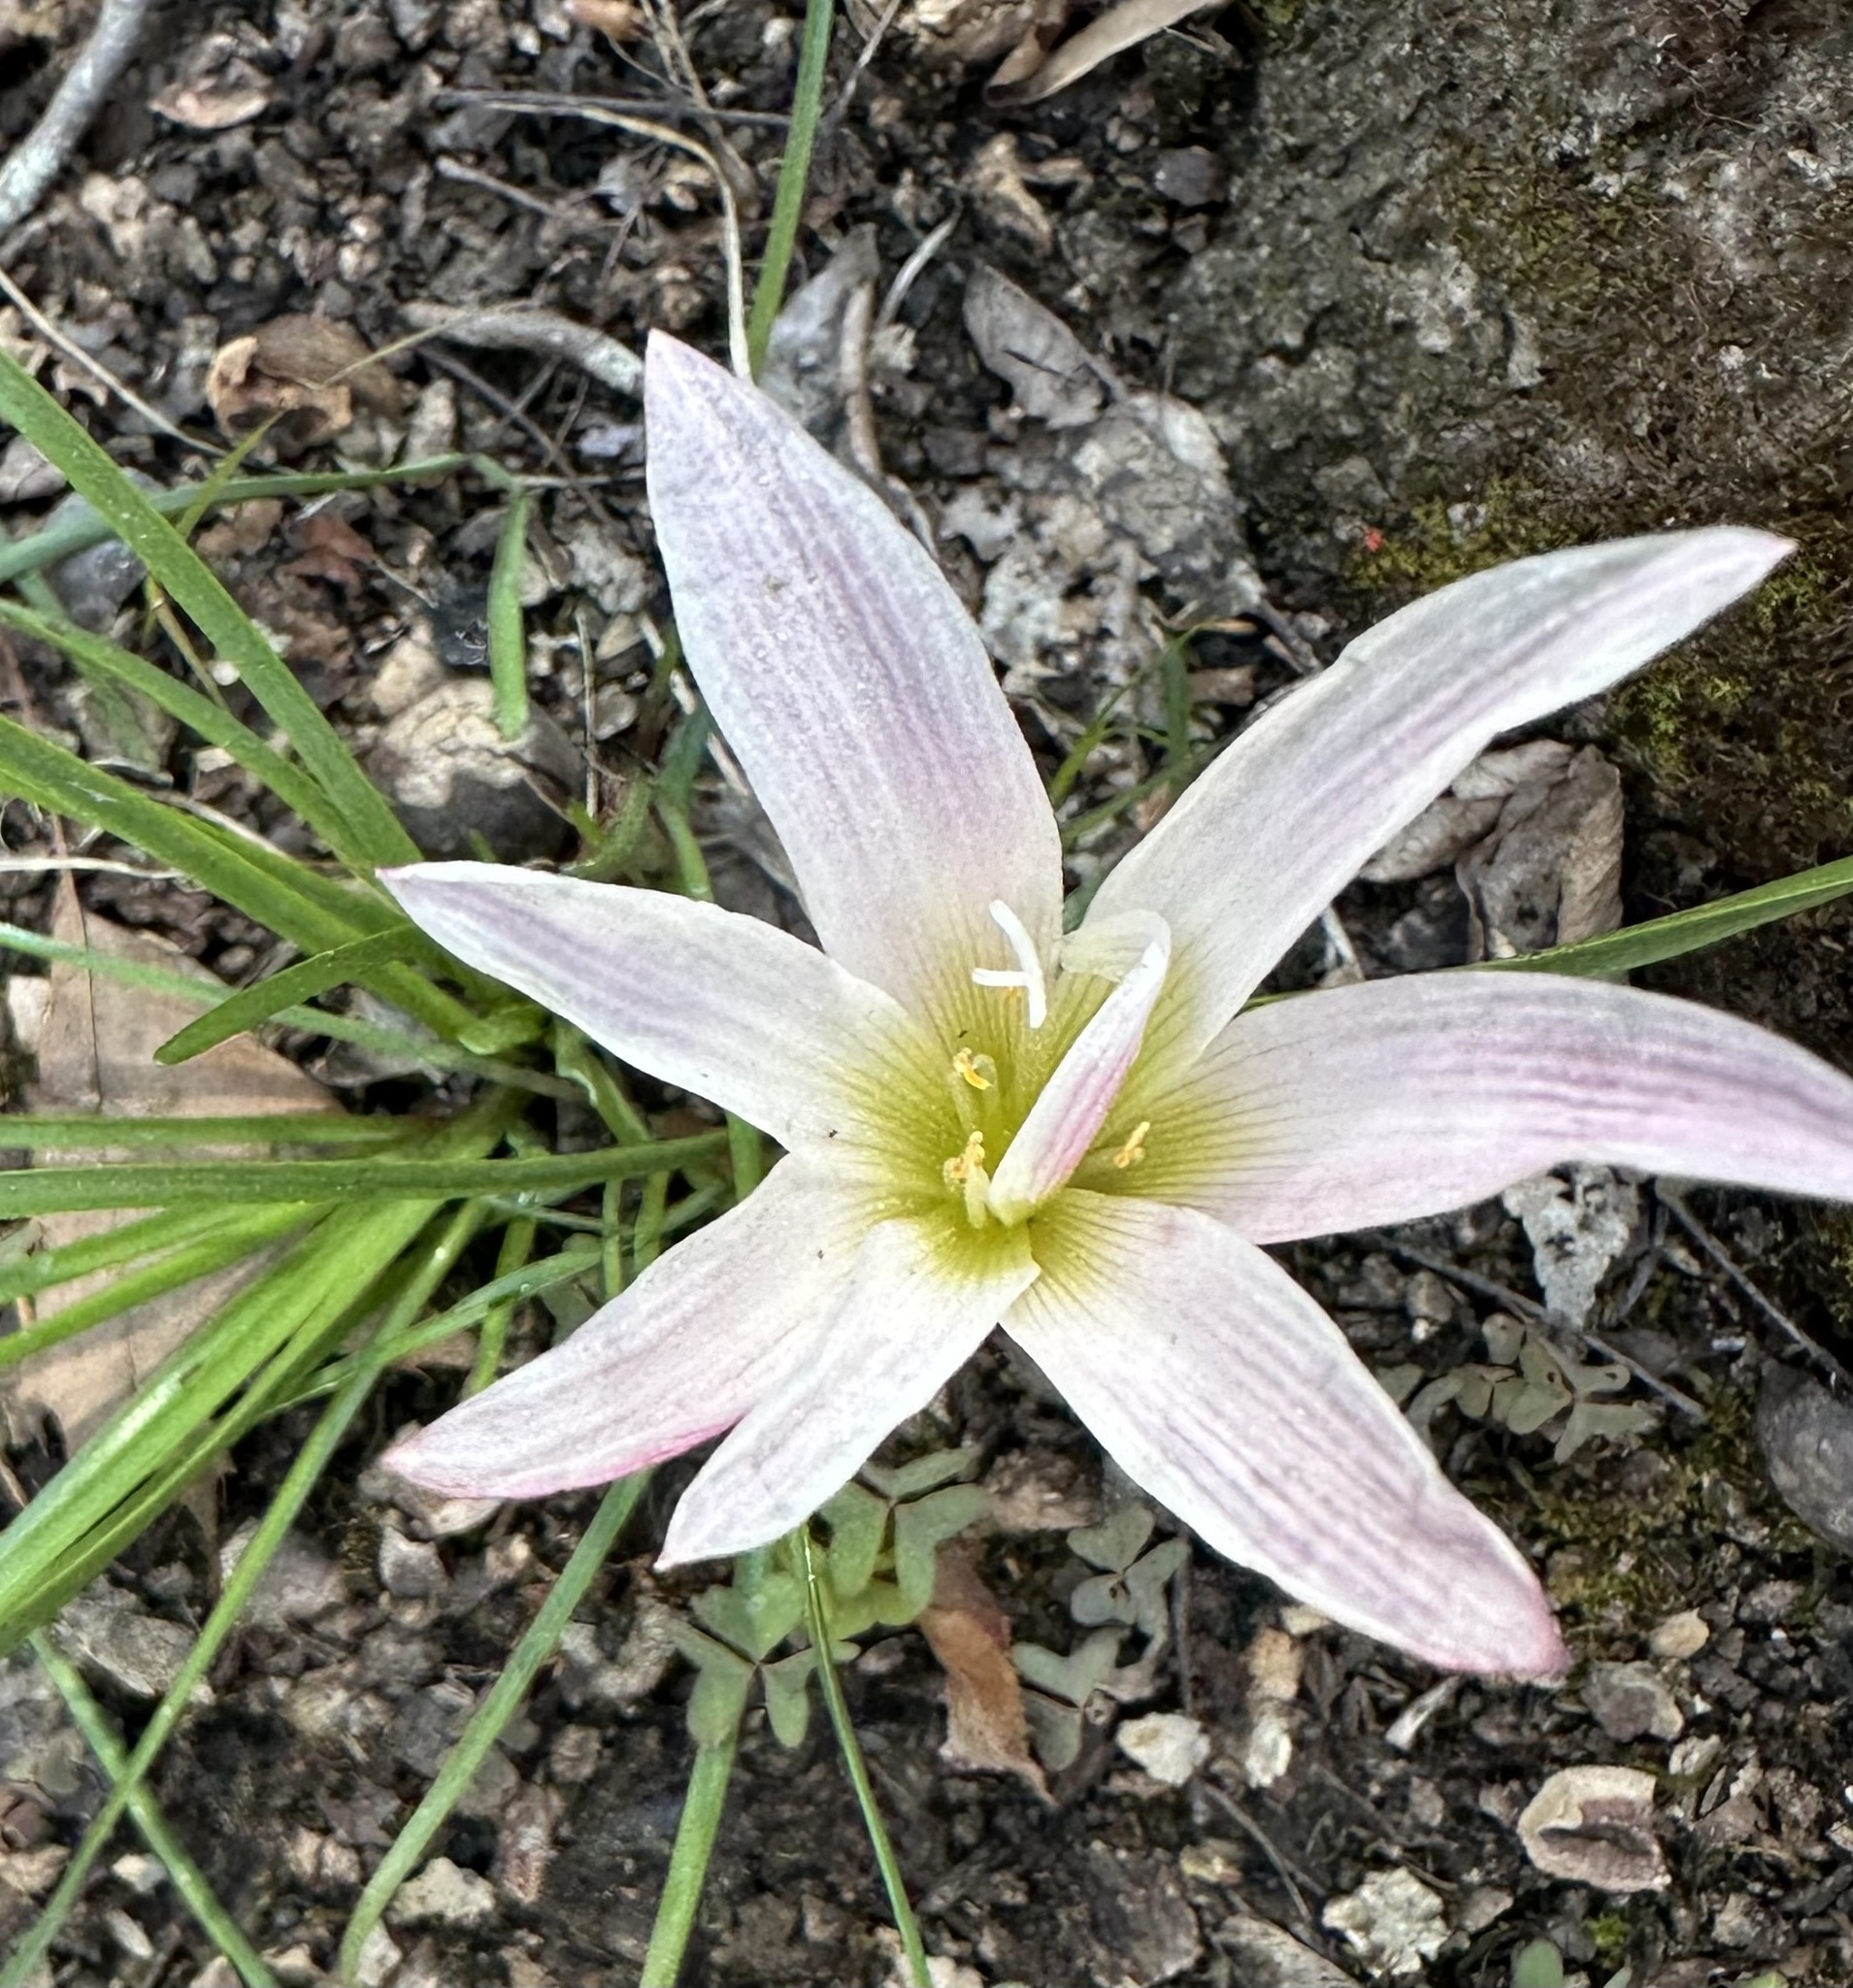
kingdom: Plantae
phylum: Tracheophyta
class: Liliopsida
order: Asparagales
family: Amaryllidaceae
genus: Zephyranthes
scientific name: Zephyranthes atamasco
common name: Atamasco lily
